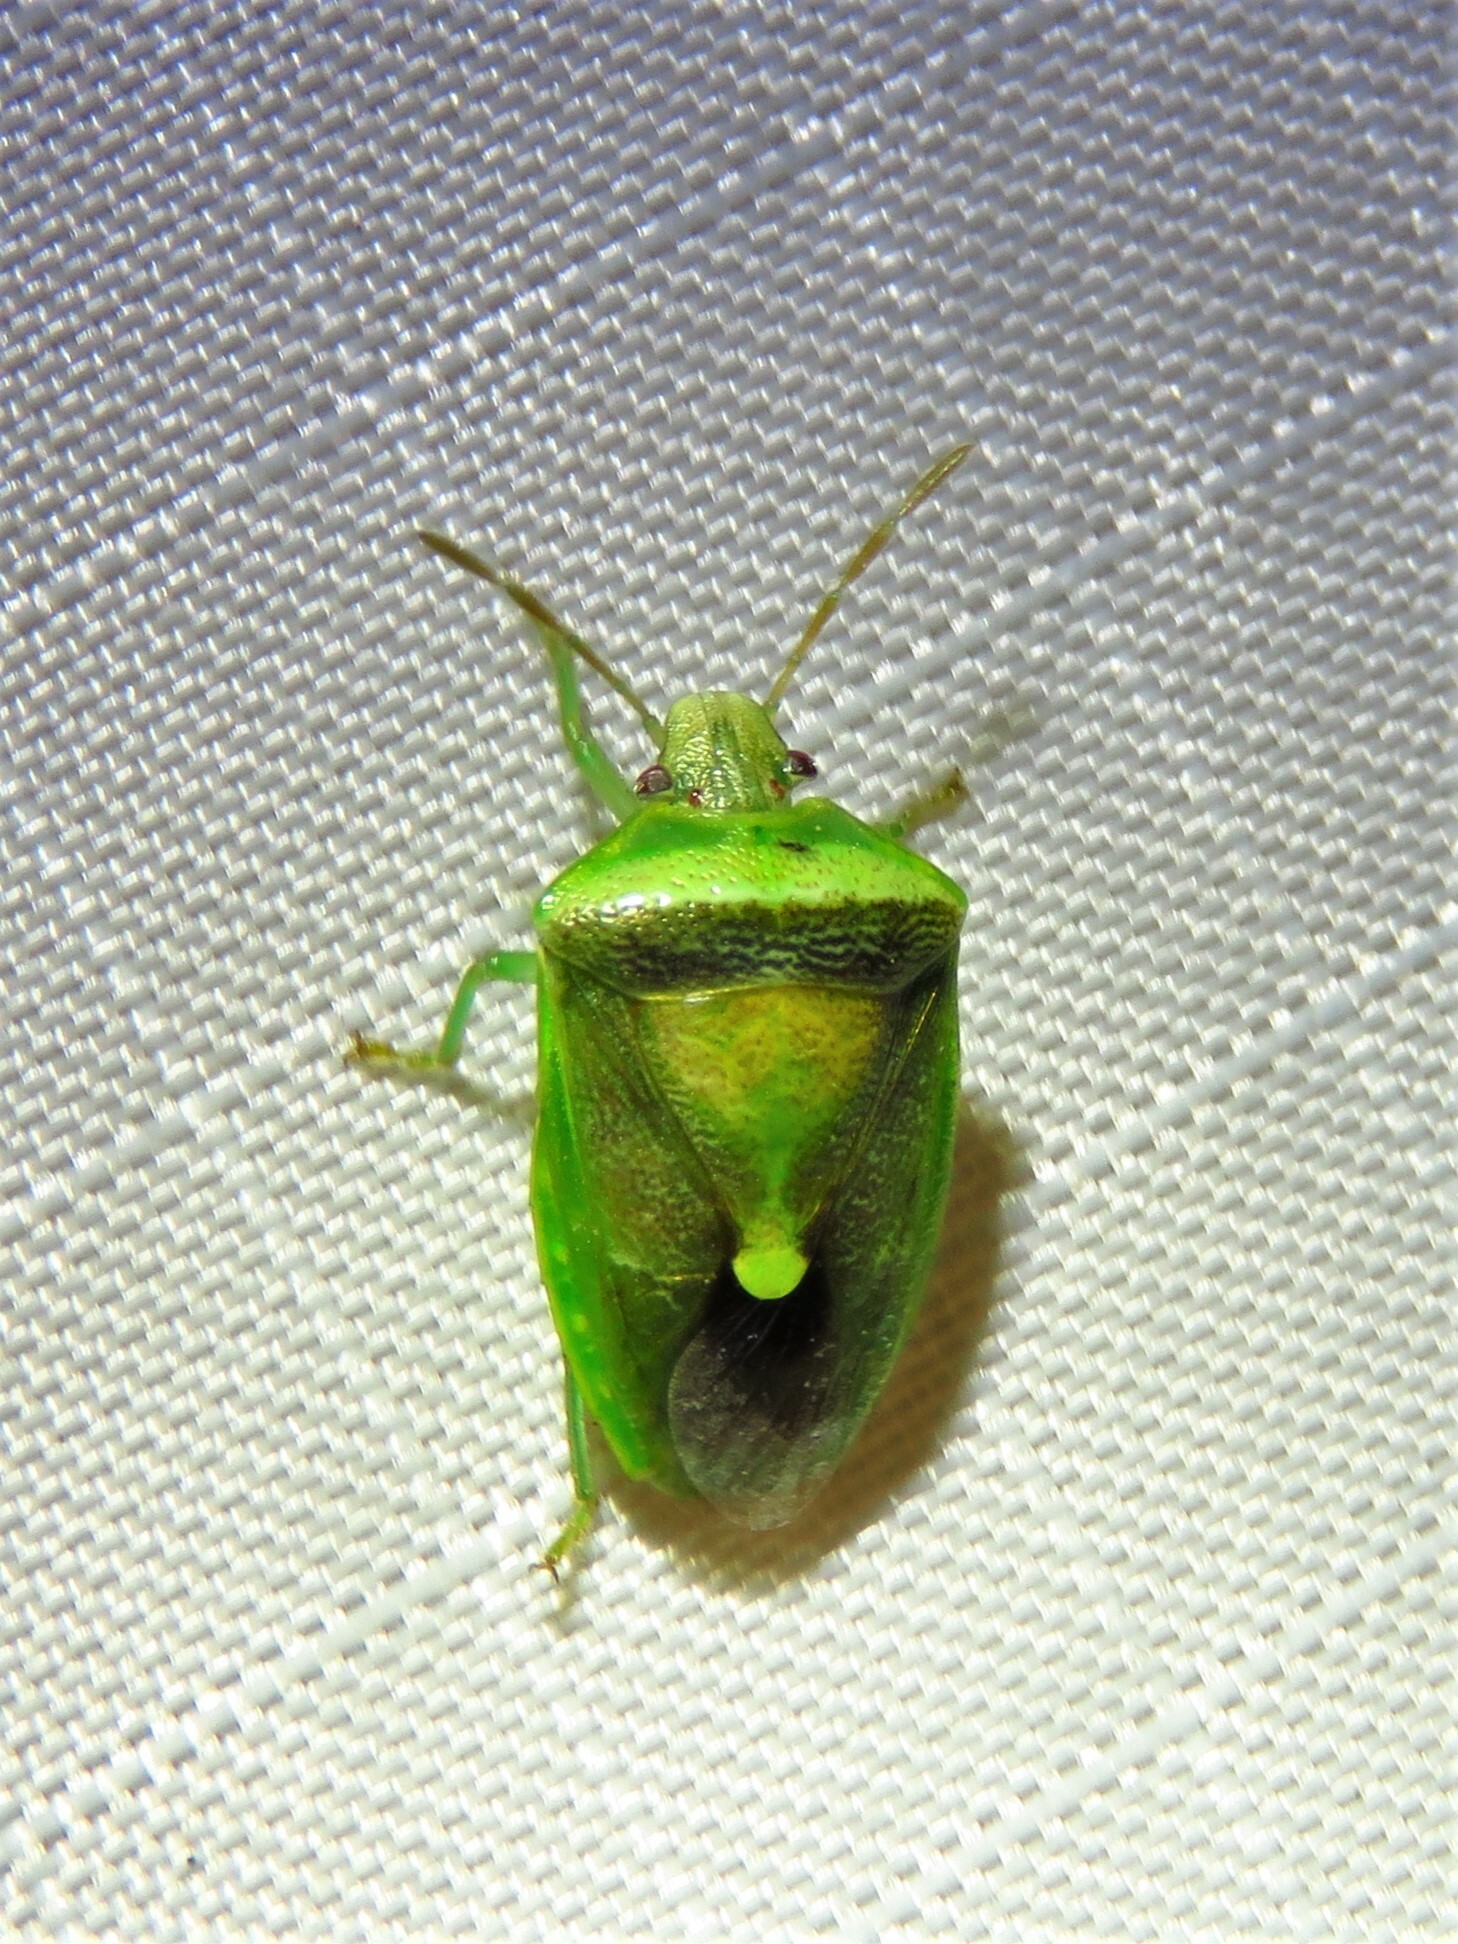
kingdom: Animalia
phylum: Arthropoda
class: Insecta
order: Hemiptera
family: Pentatomidae
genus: Banasa
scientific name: Banasa dimidiata
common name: Green burgundy stink bug
